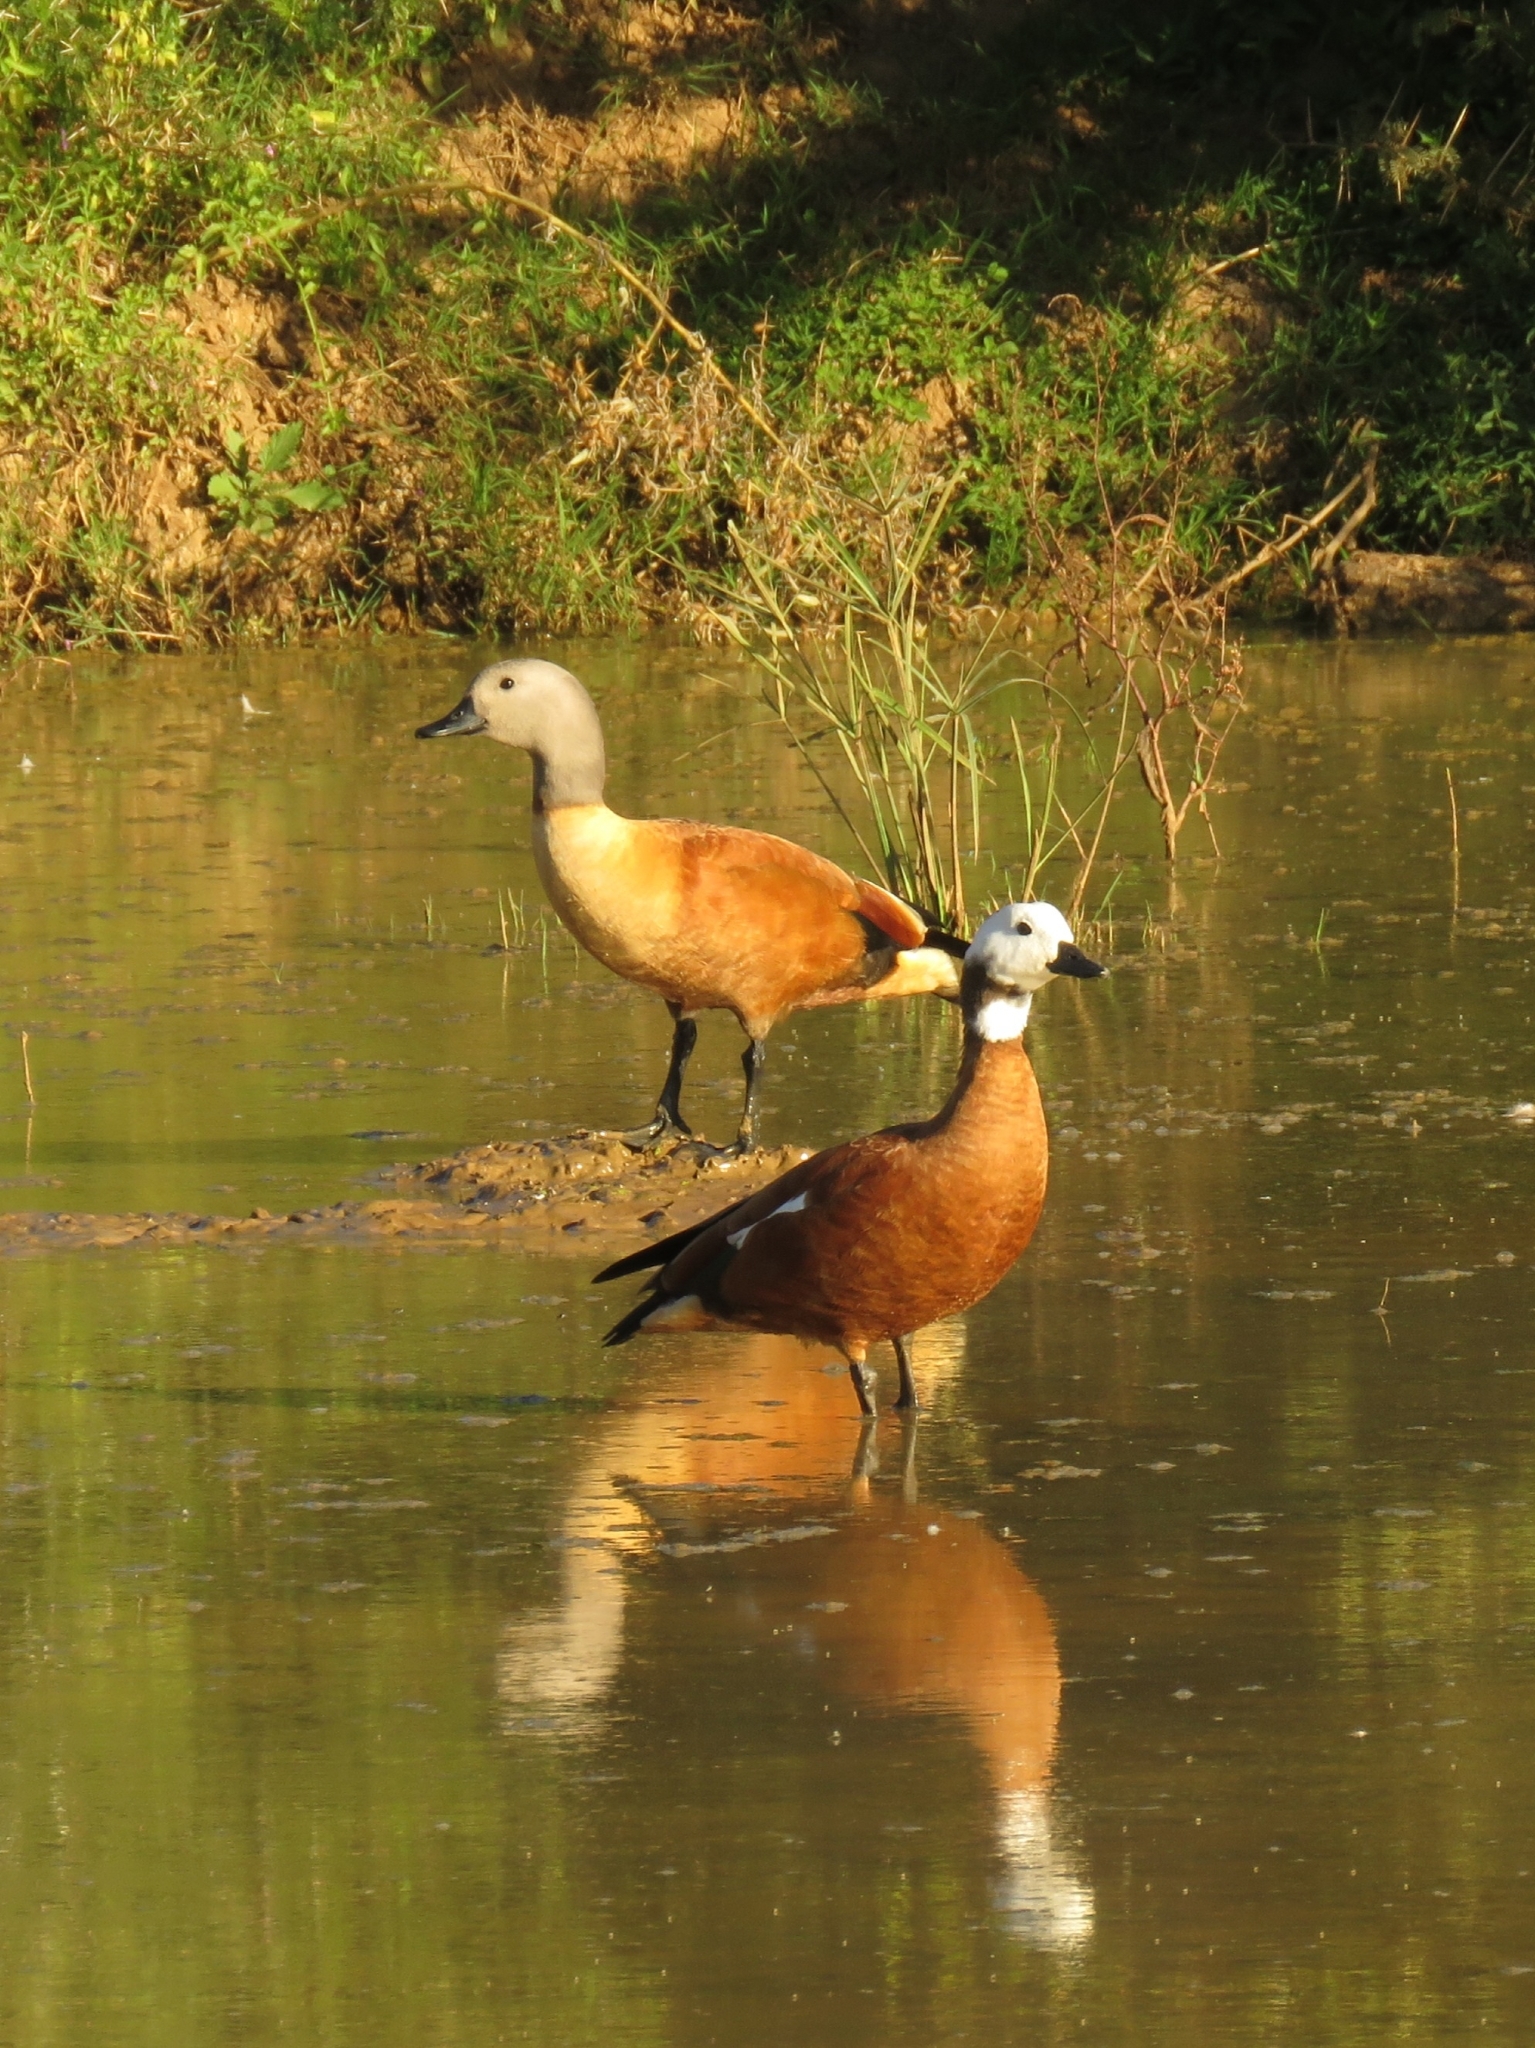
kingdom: Animalia
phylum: Chordata
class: Aves
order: Anseriformes
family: Anatidae
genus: Tadorna
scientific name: Tadorna cana
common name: South african shelduck
